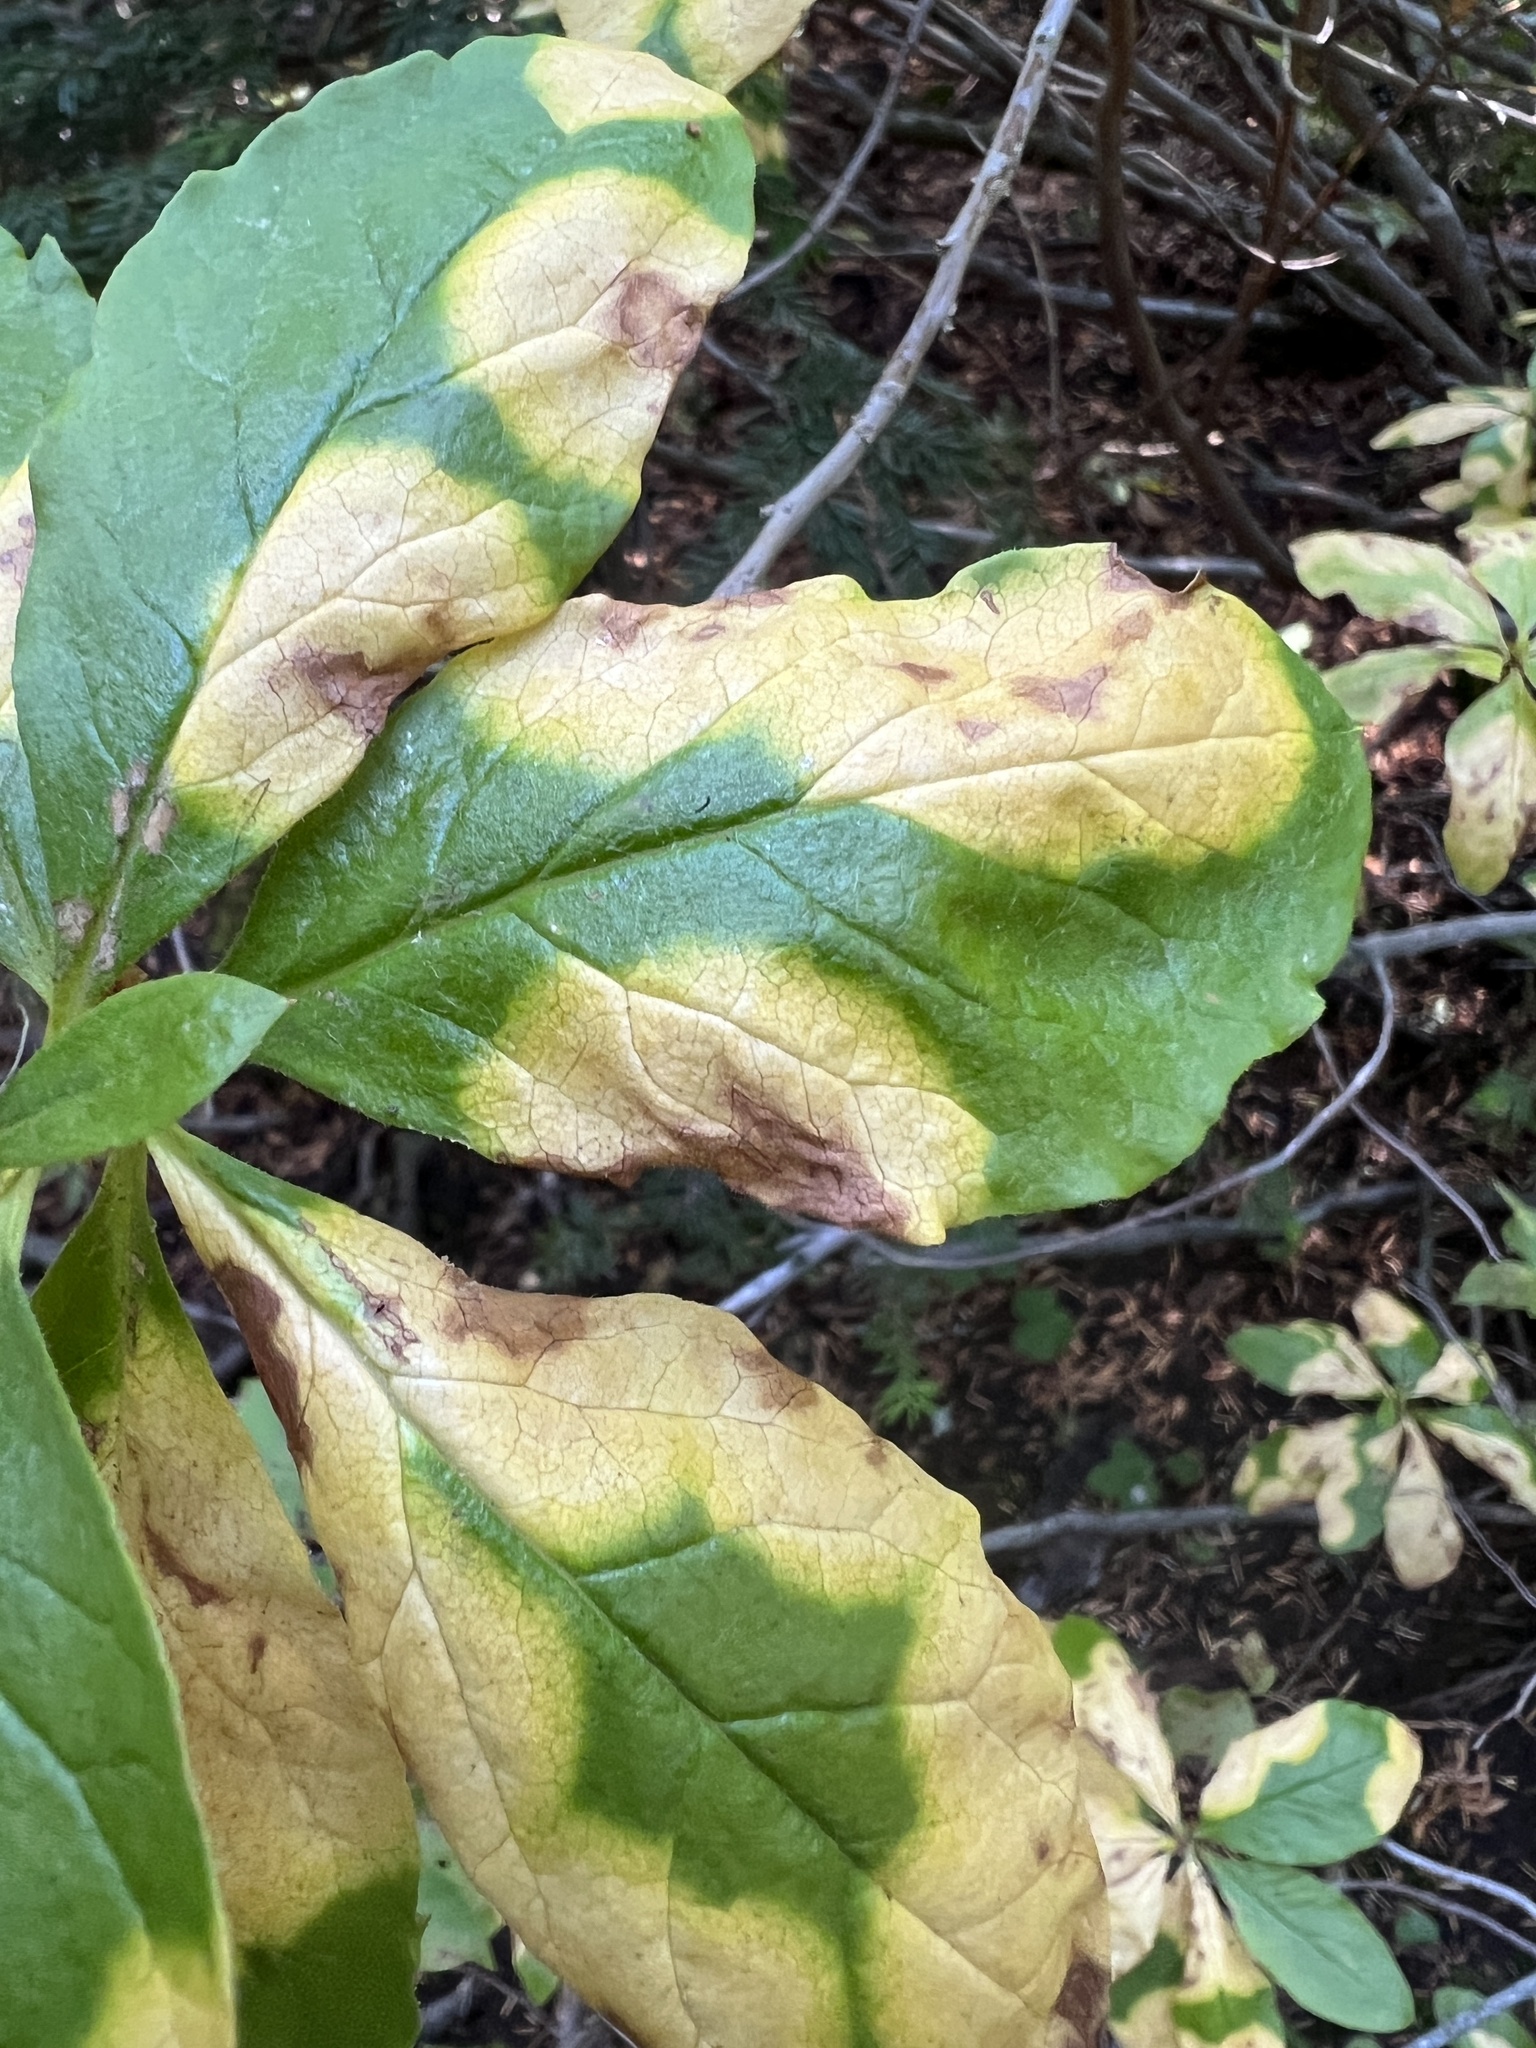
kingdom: Fungi
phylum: Basidiomycota
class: Exobasidiomycetes
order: Exobasidiales
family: Exobasidiaceae
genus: Exobasidium
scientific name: Exobasidium burtii
